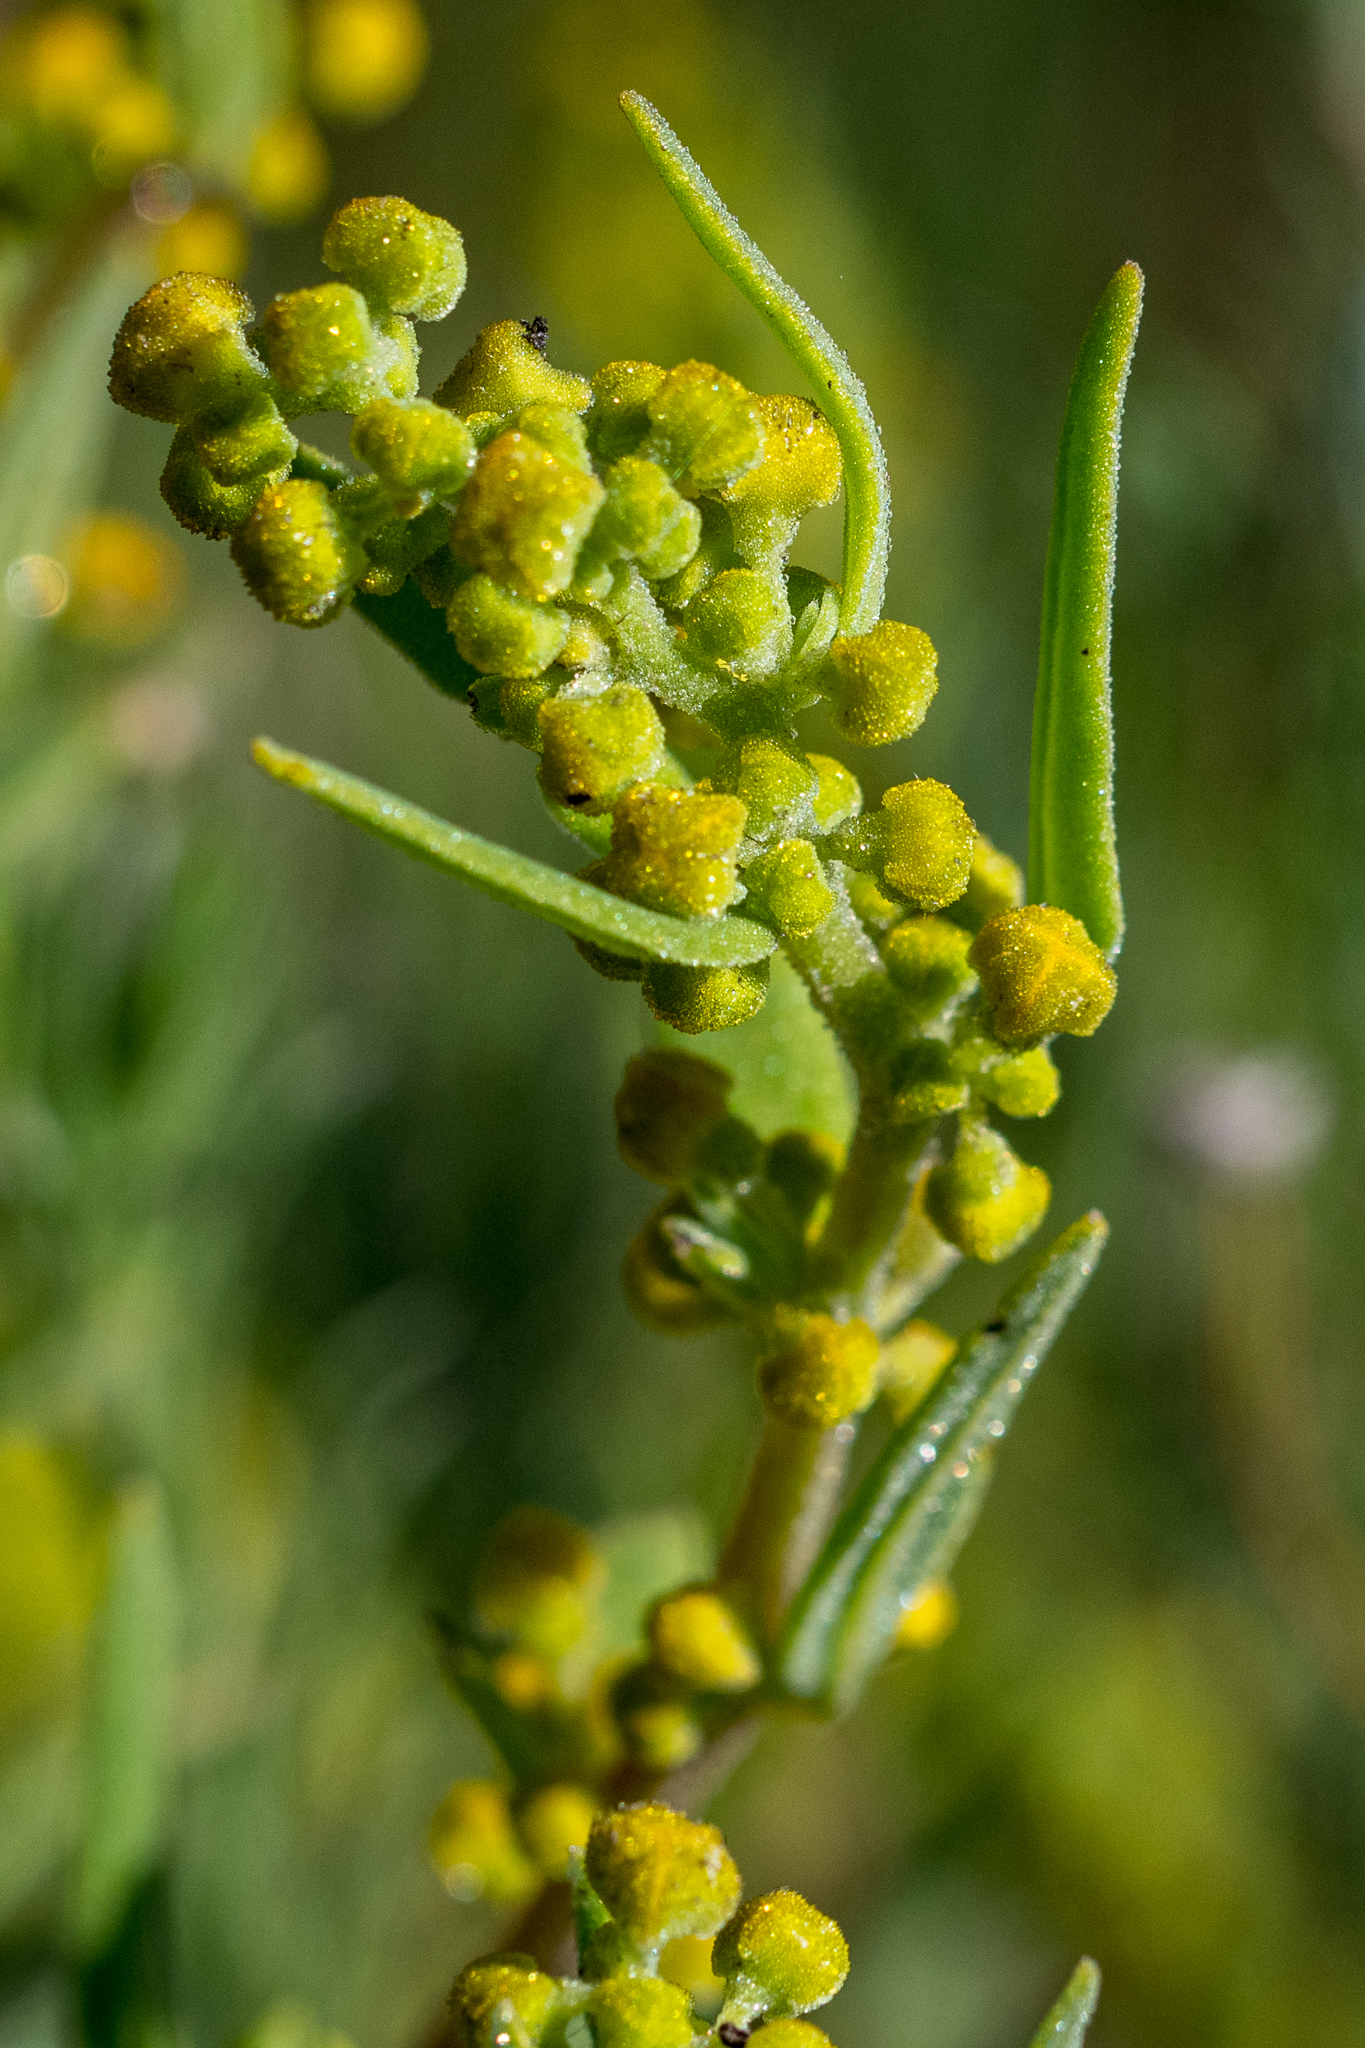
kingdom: Plantae
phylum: Tracheophyta
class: Magnoliopsida
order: Caryophyllales
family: Aizoaceae
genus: Tetragonia
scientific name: Tetragonia fruticosa
